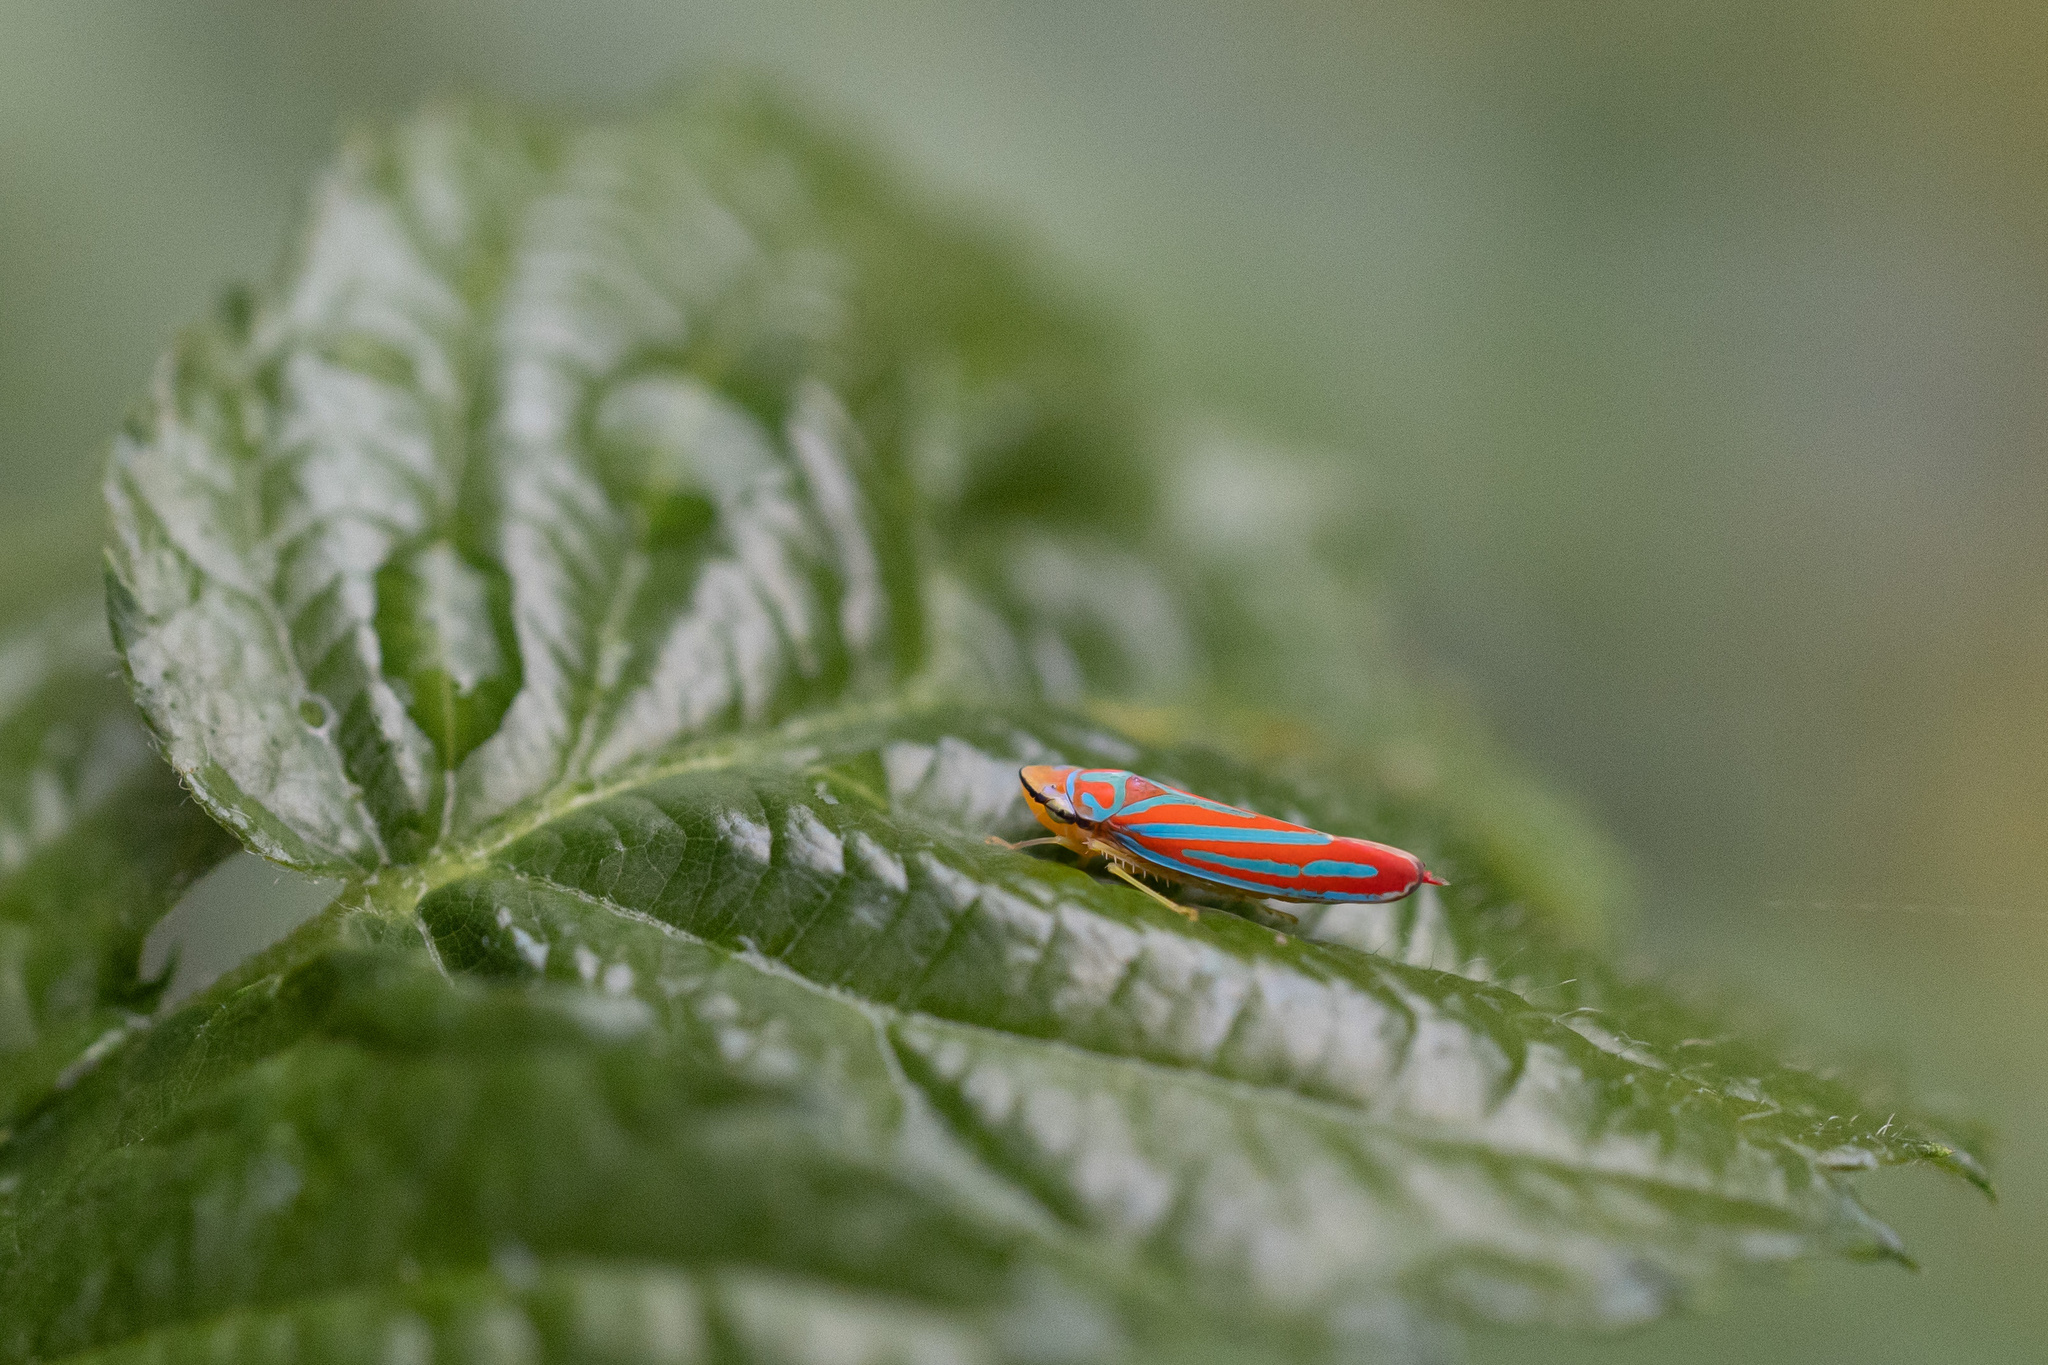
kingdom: Animalia
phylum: Arthropoda
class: Insecta
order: Hemiptera
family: Cicadellidae
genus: Graphocephala
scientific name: Graphocephala coccinea
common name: Candy-striped leafhopper
